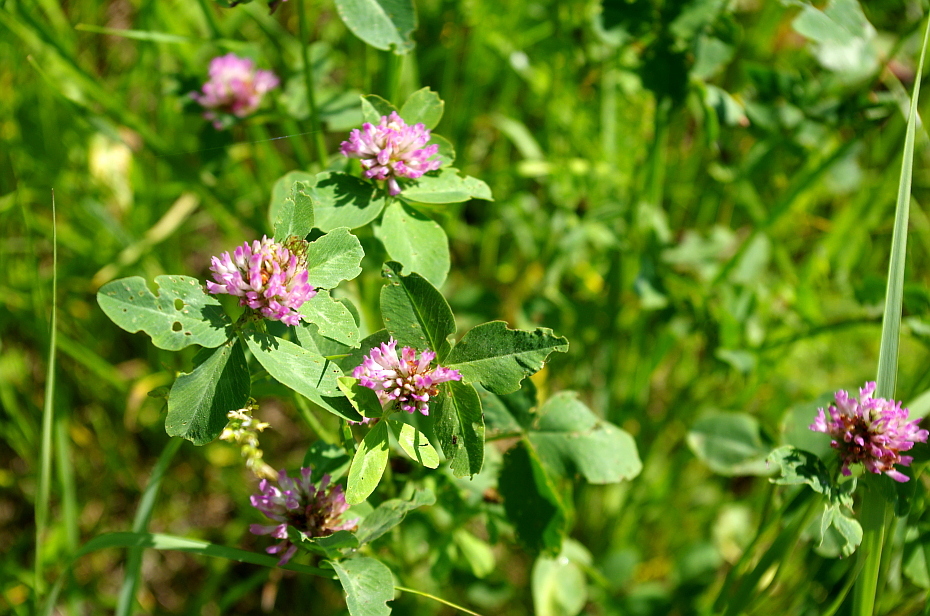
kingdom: Plantae
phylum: Tracheophyta
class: Magnoliopsida
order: Fabales
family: Fabaceae
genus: Trifolium
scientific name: Trifolium pratense
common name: Red clover
